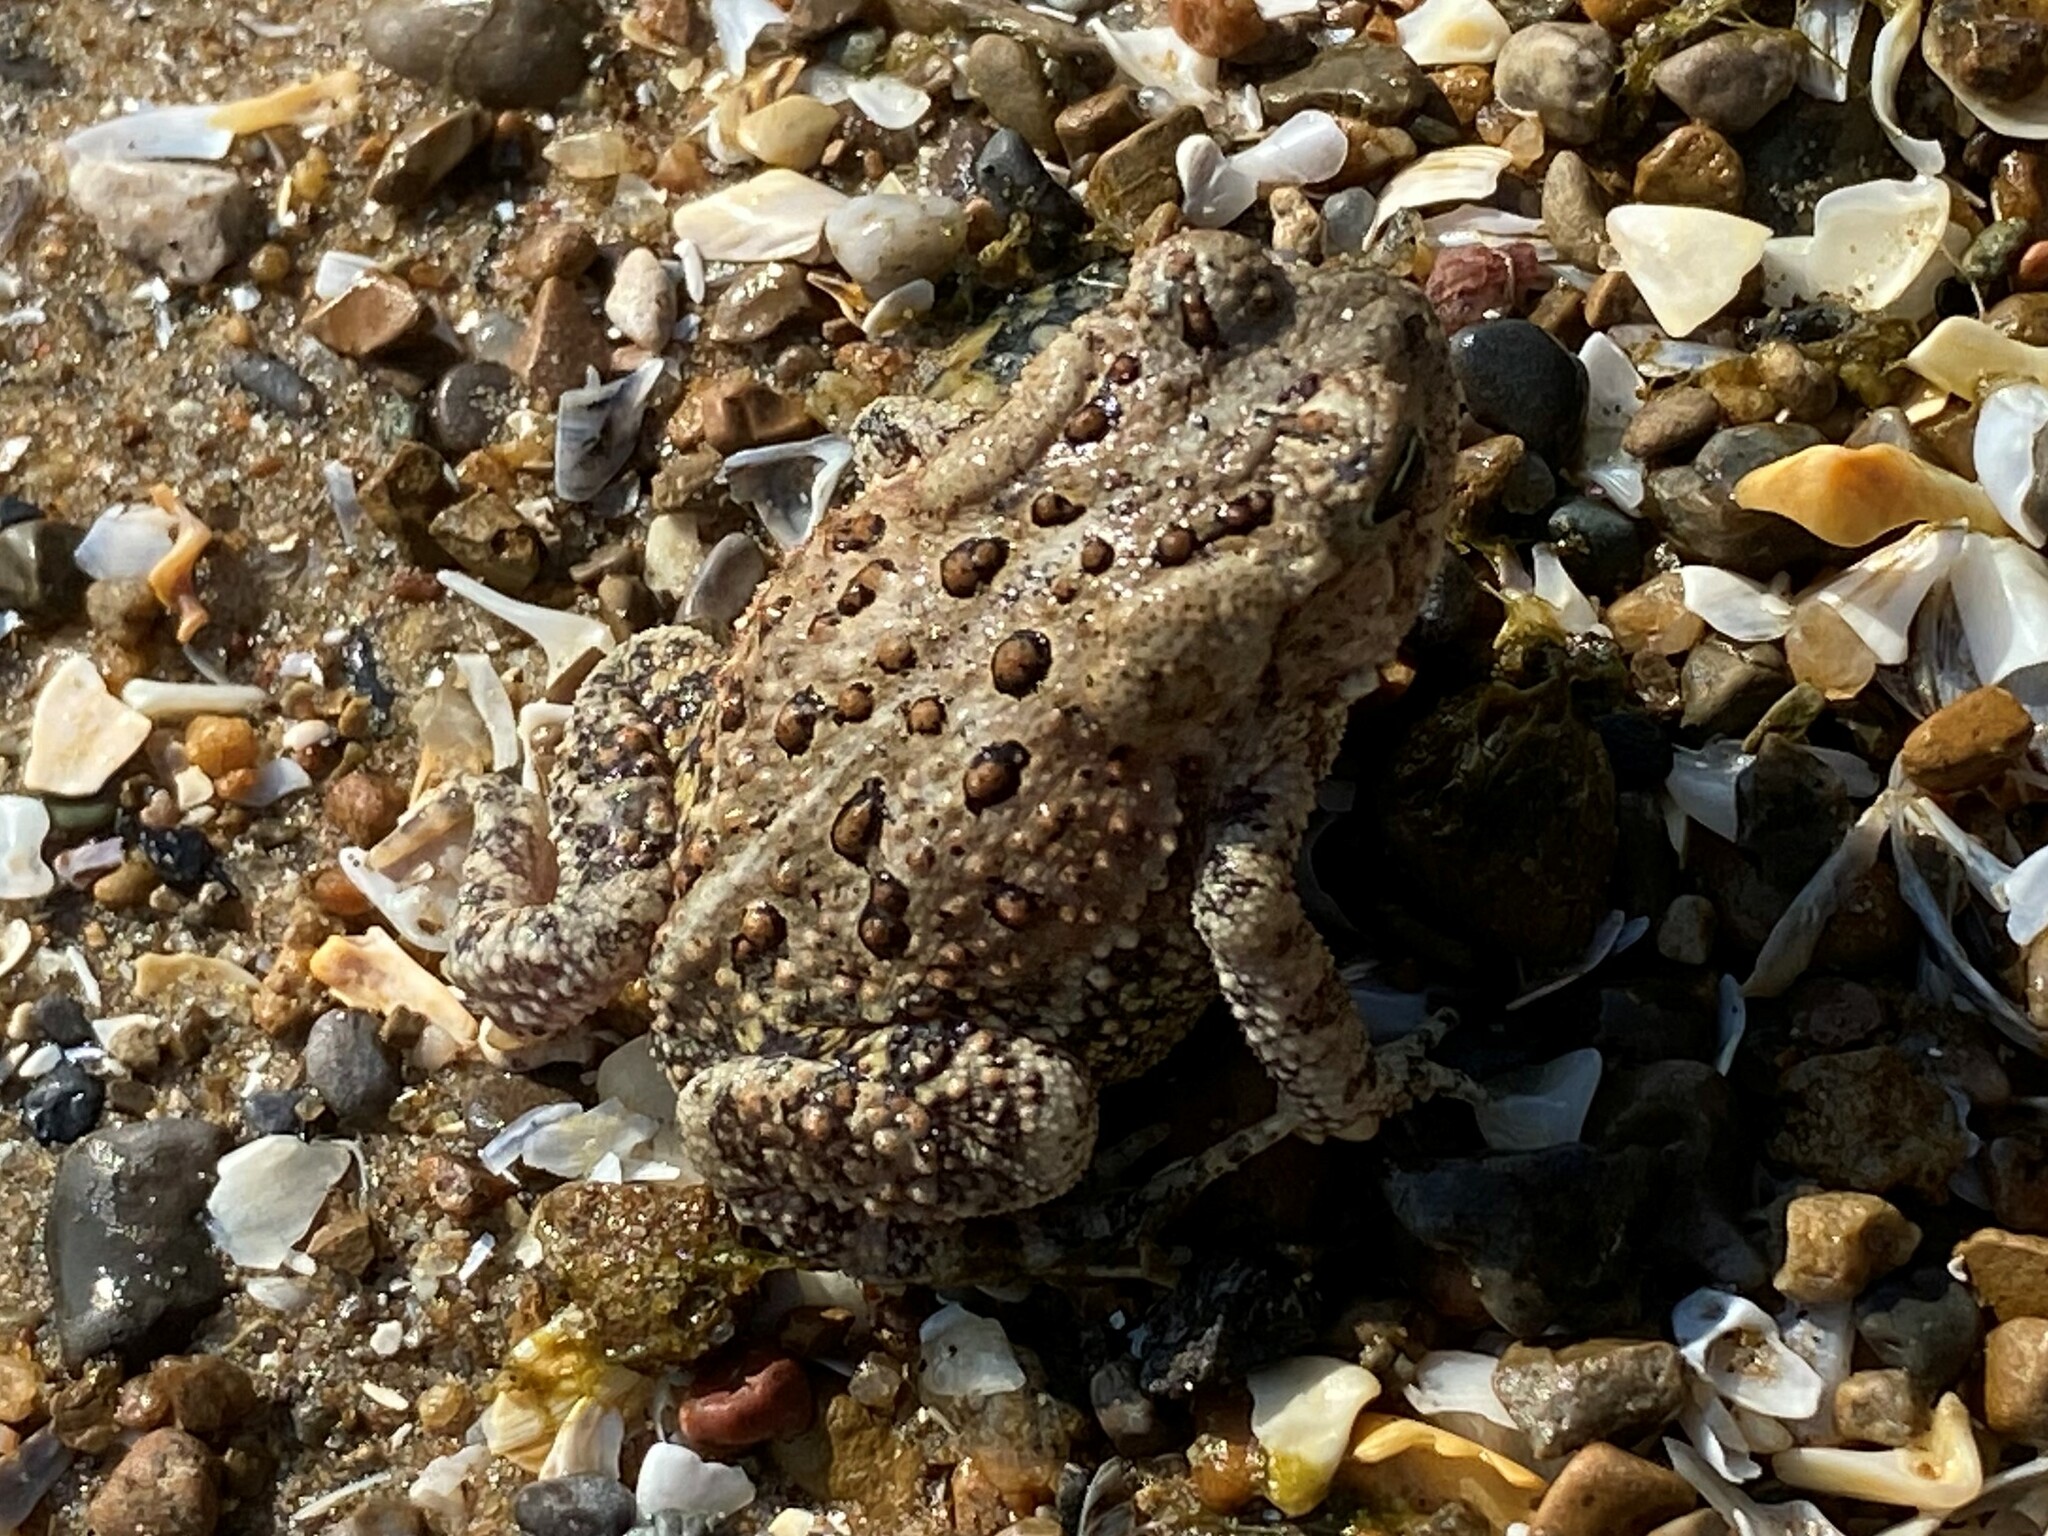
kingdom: Animalia
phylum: Chordata
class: Amphibia
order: Anura
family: Bufonidae
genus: Anaxyrus
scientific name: Anaxyrus americanus
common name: American toad
